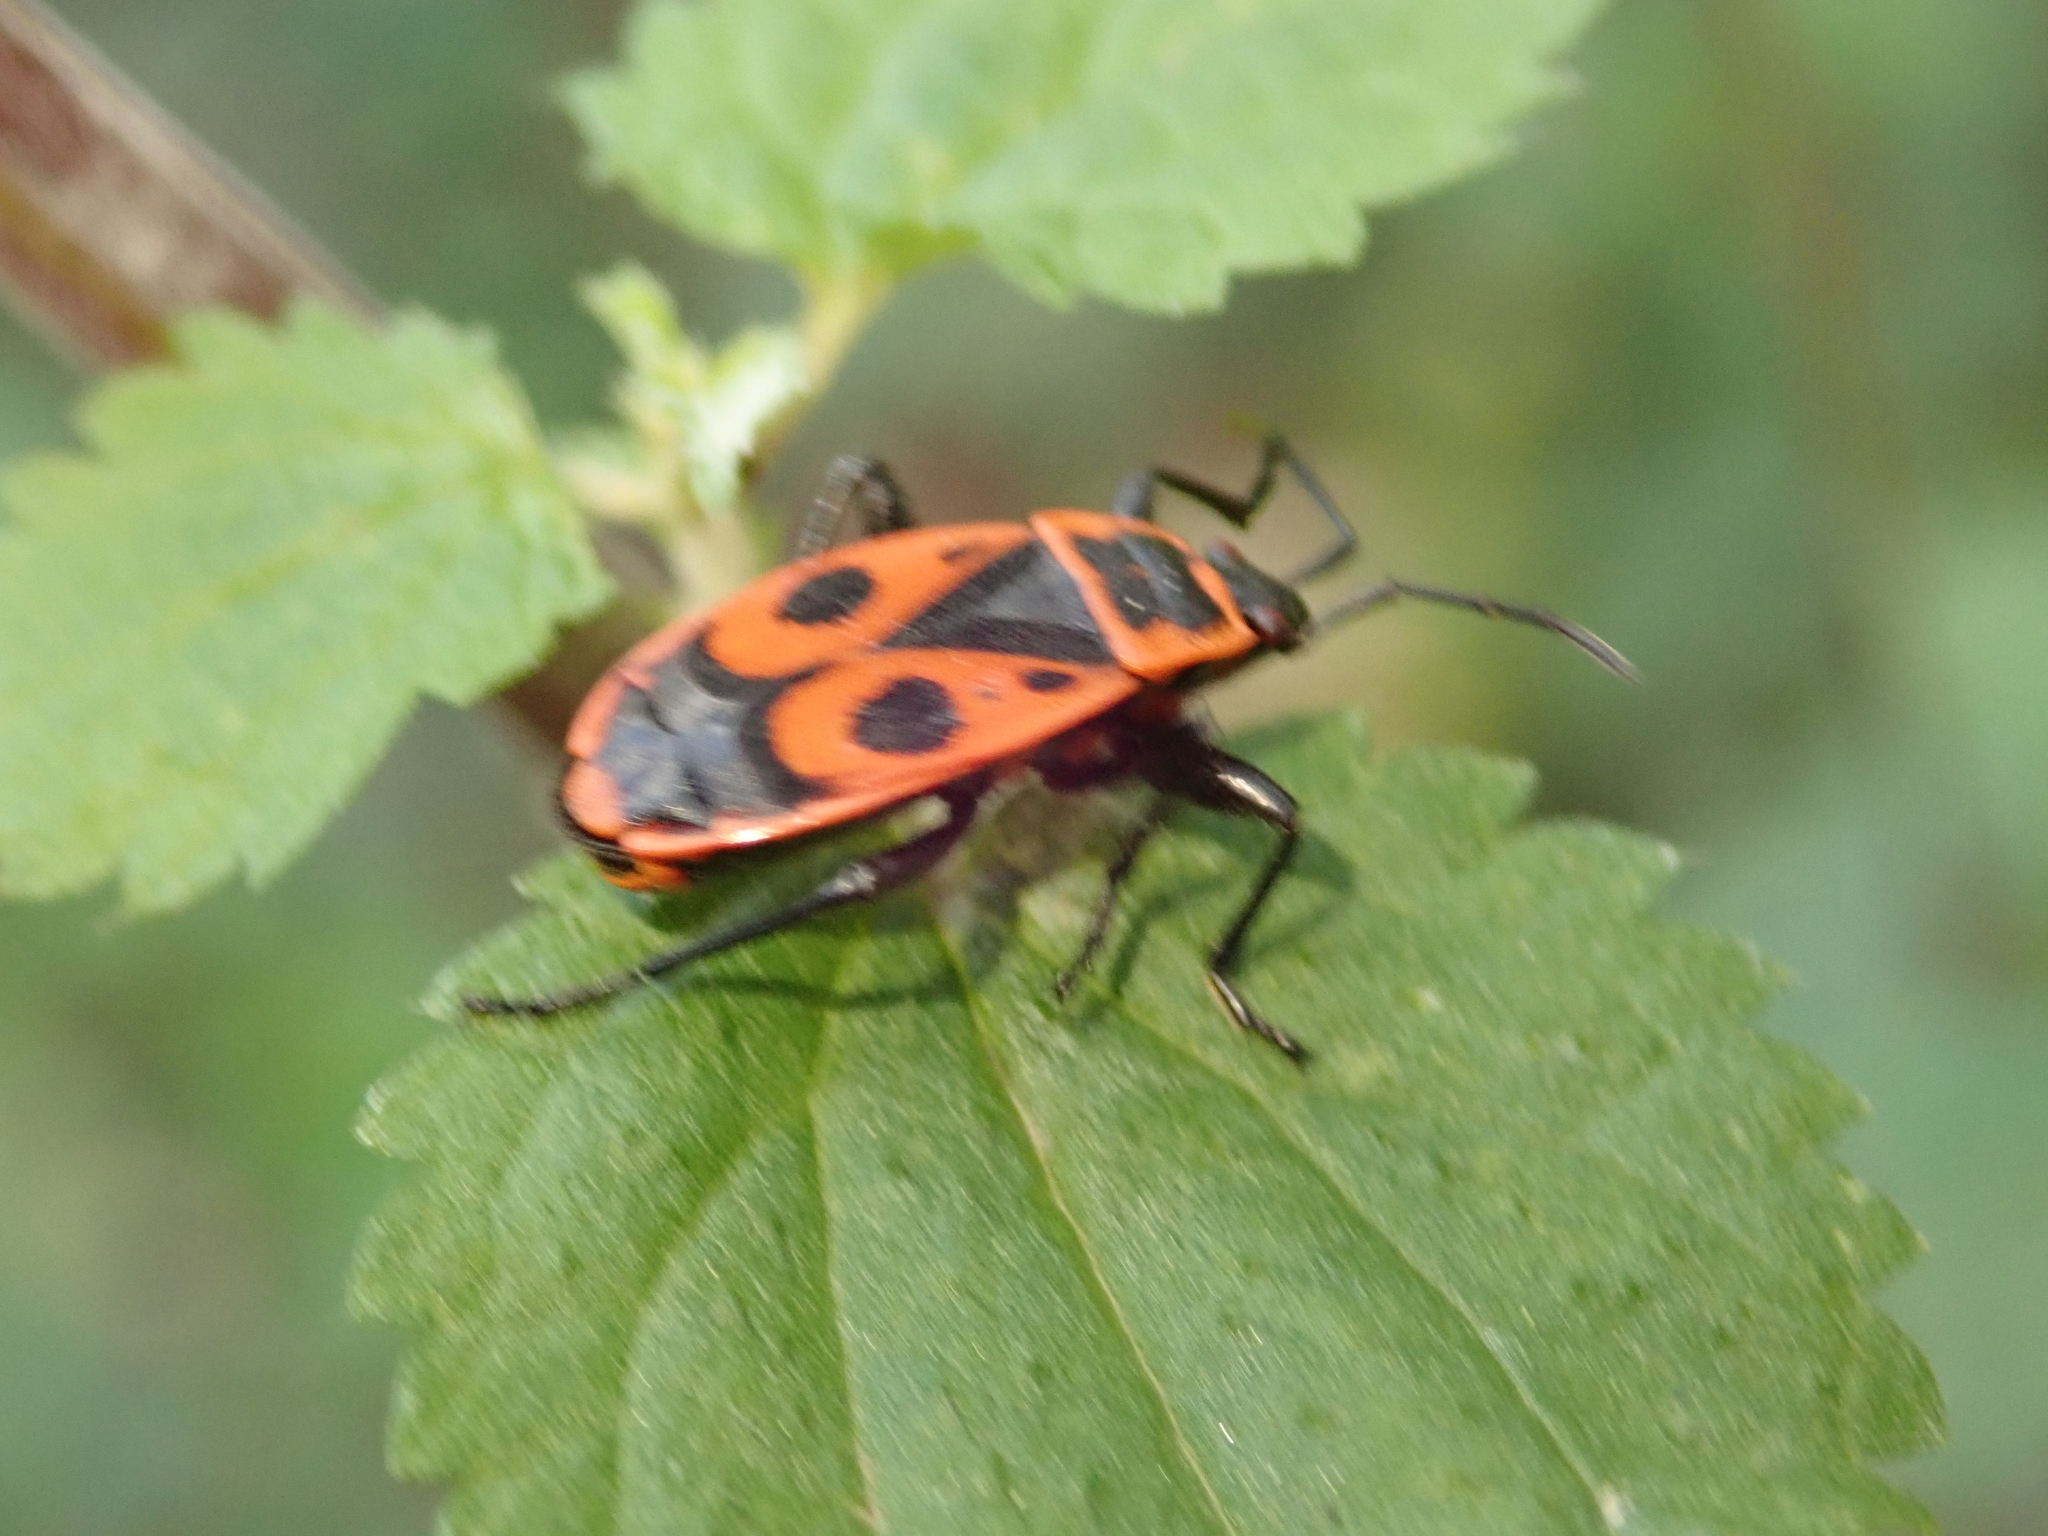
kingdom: Animalia
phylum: Arthropoda
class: Insecta
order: Hemiptera
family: Pyrrhocoridae
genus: Pyrrhocoris
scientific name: Pyrrhocoris apterus
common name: Firebug
